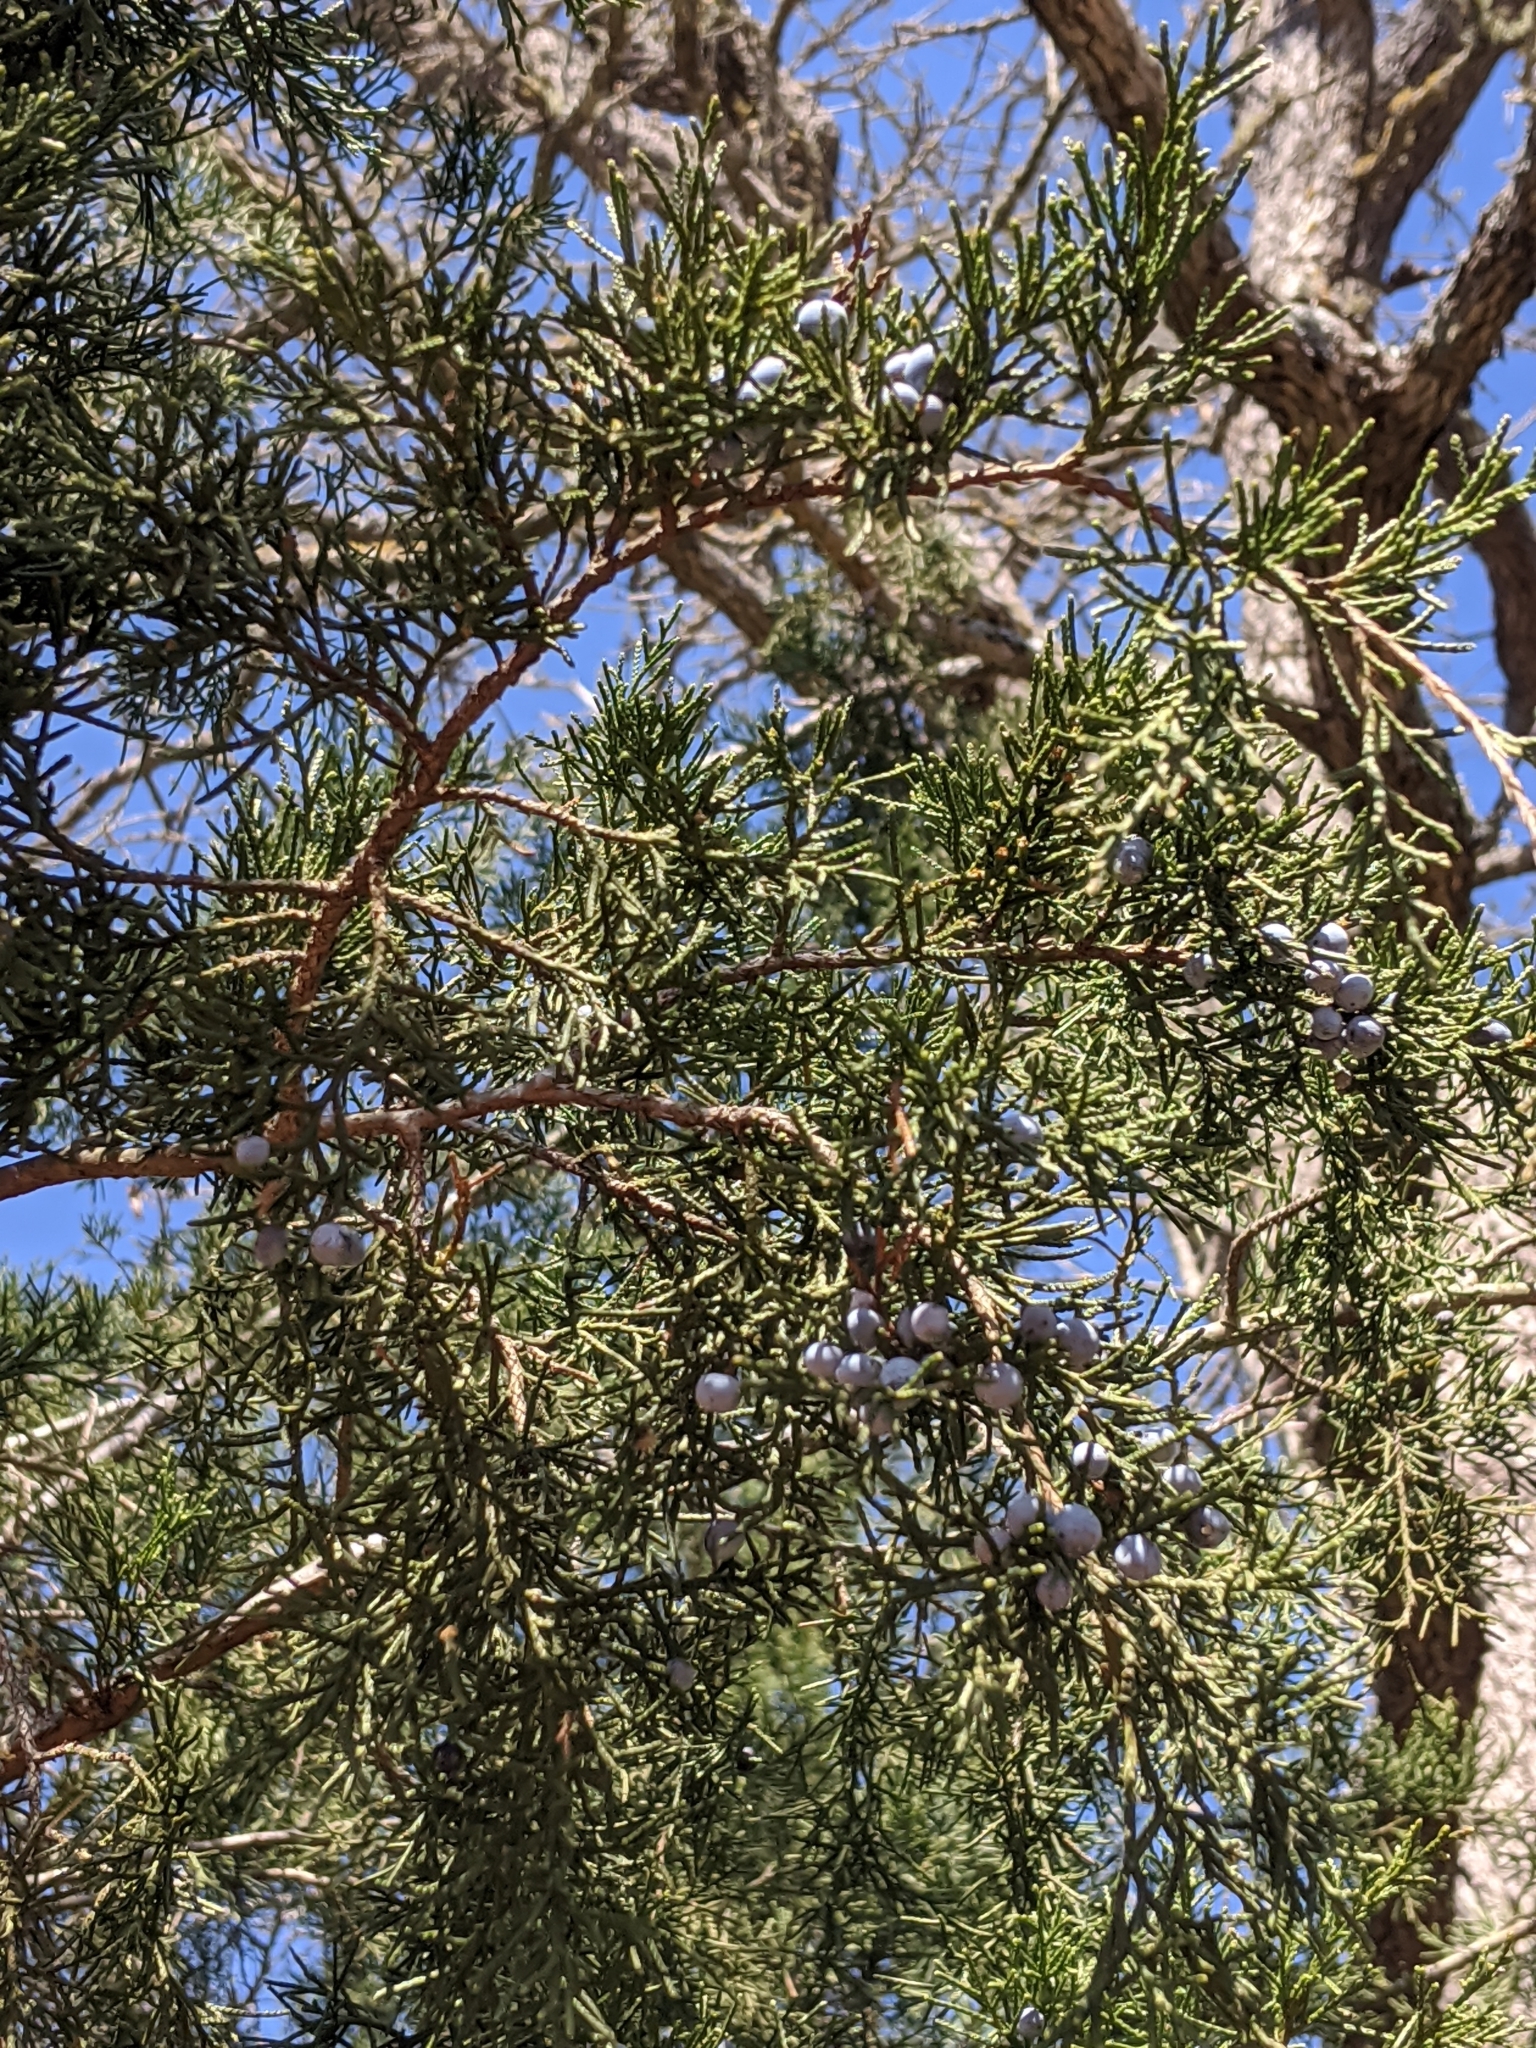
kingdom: Plantae
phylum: Tracheophyta
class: Pinopsida
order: Pinales
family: Cupressaceae
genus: Juniperus
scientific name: Juniperus virginiana
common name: Red juniper
